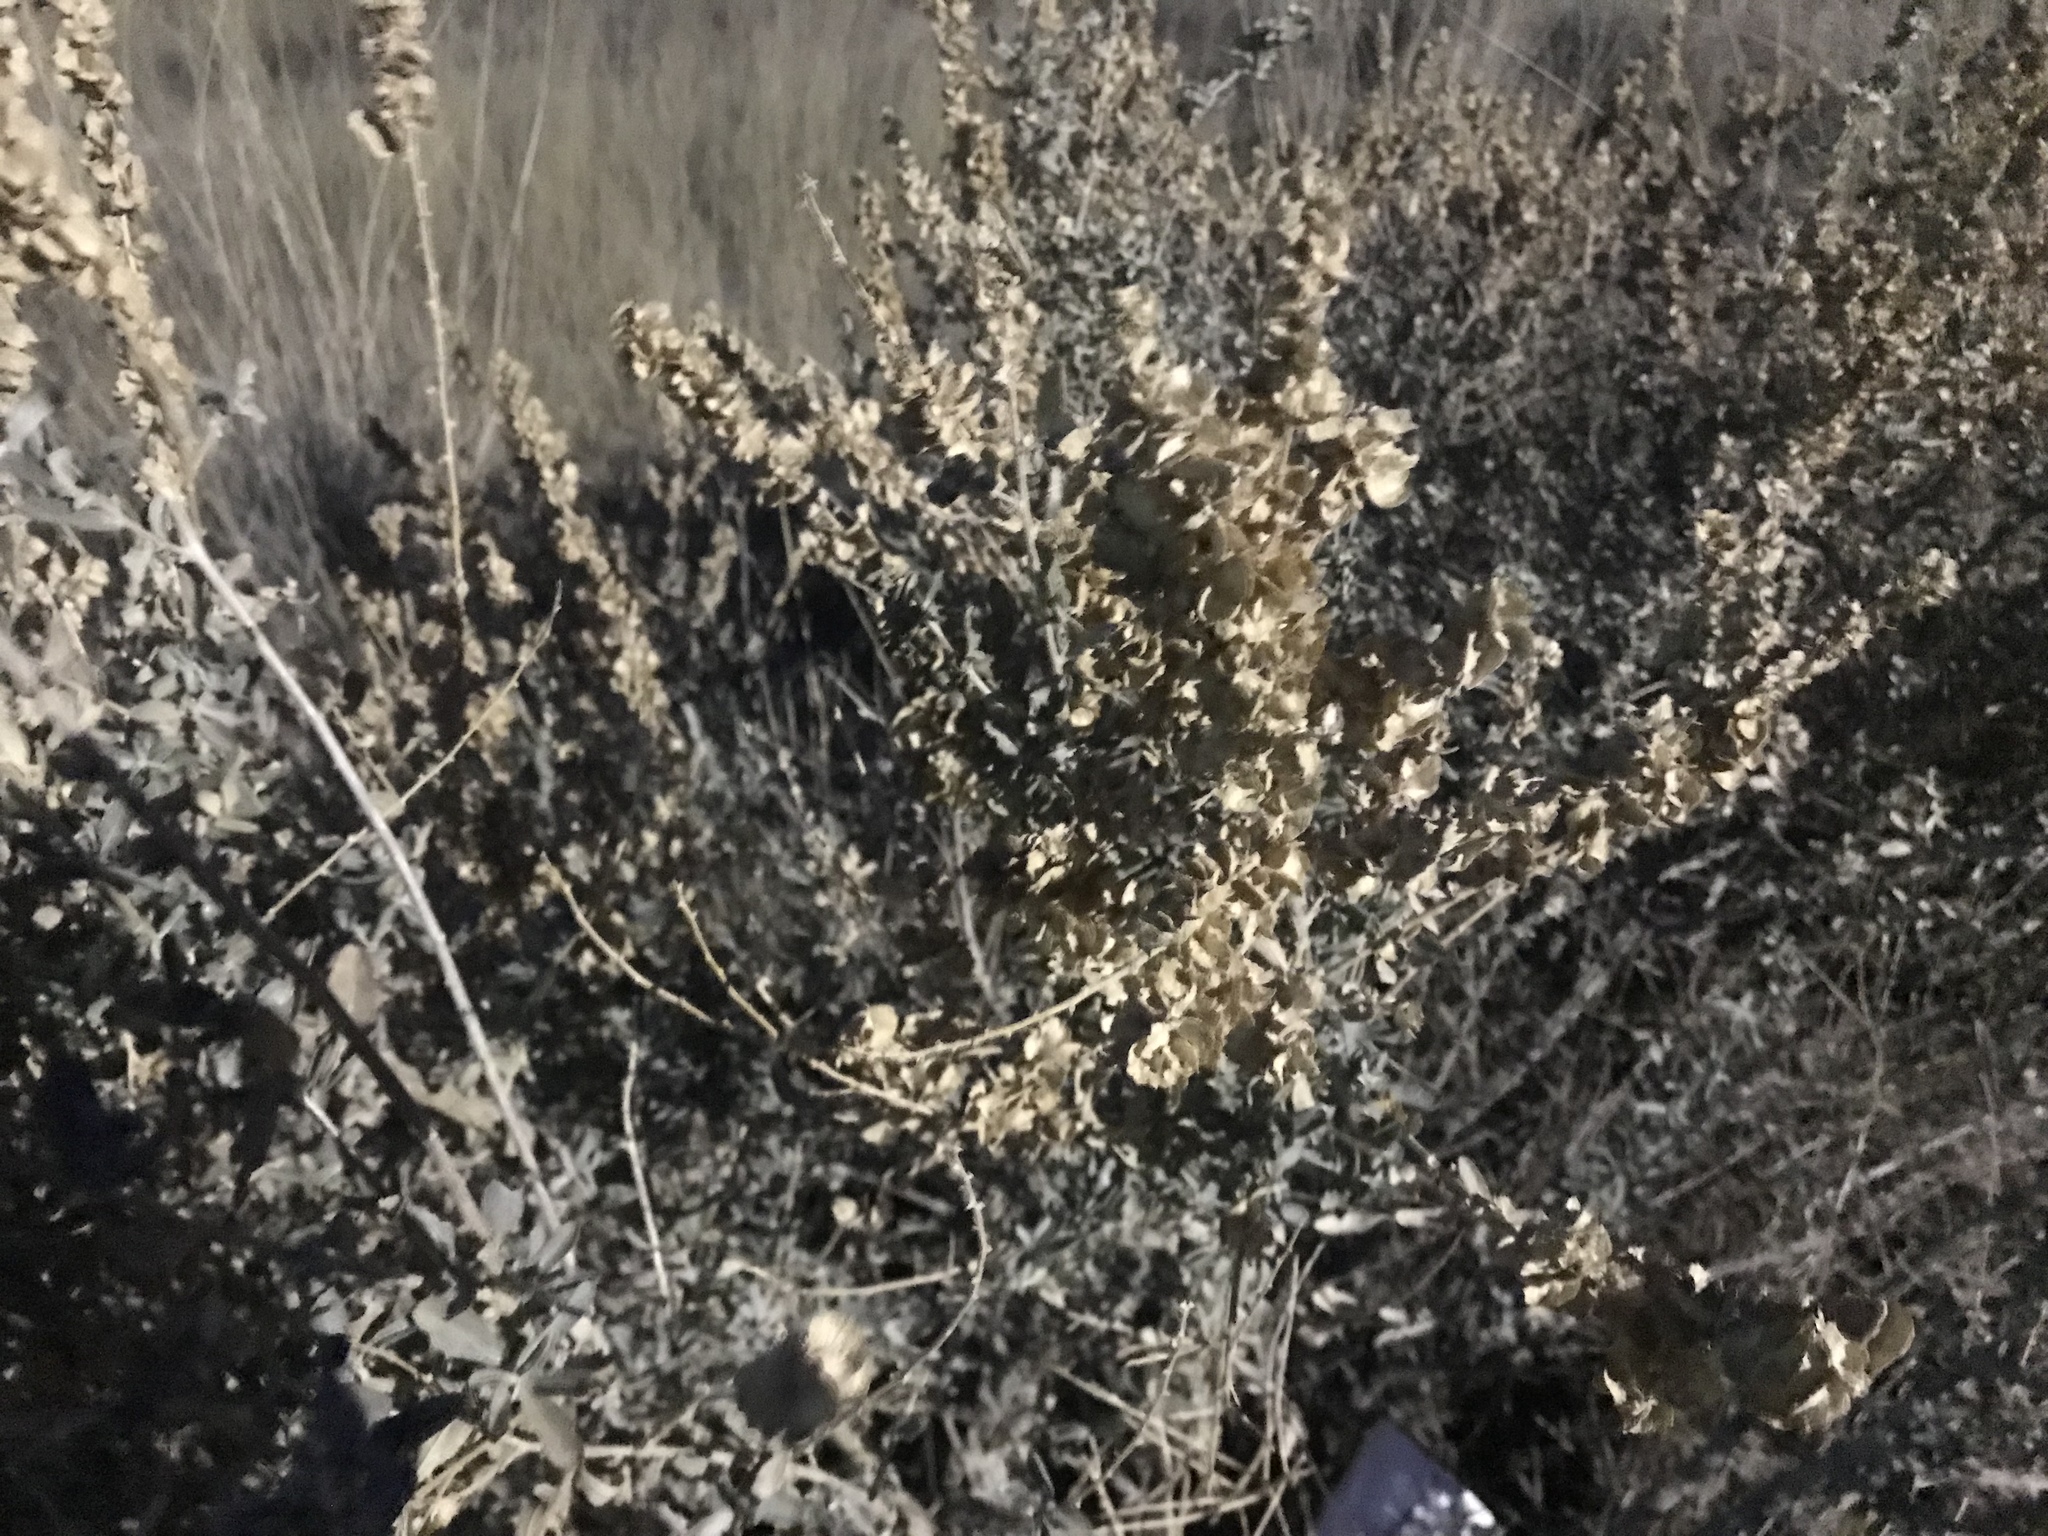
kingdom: Plantae
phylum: Tracheophyta
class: Magnoliopsida
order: Caryophyllales
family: Amaranthaceae
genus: Atriplex
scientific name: Atriplex canescens
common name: Four-wing saltbush
